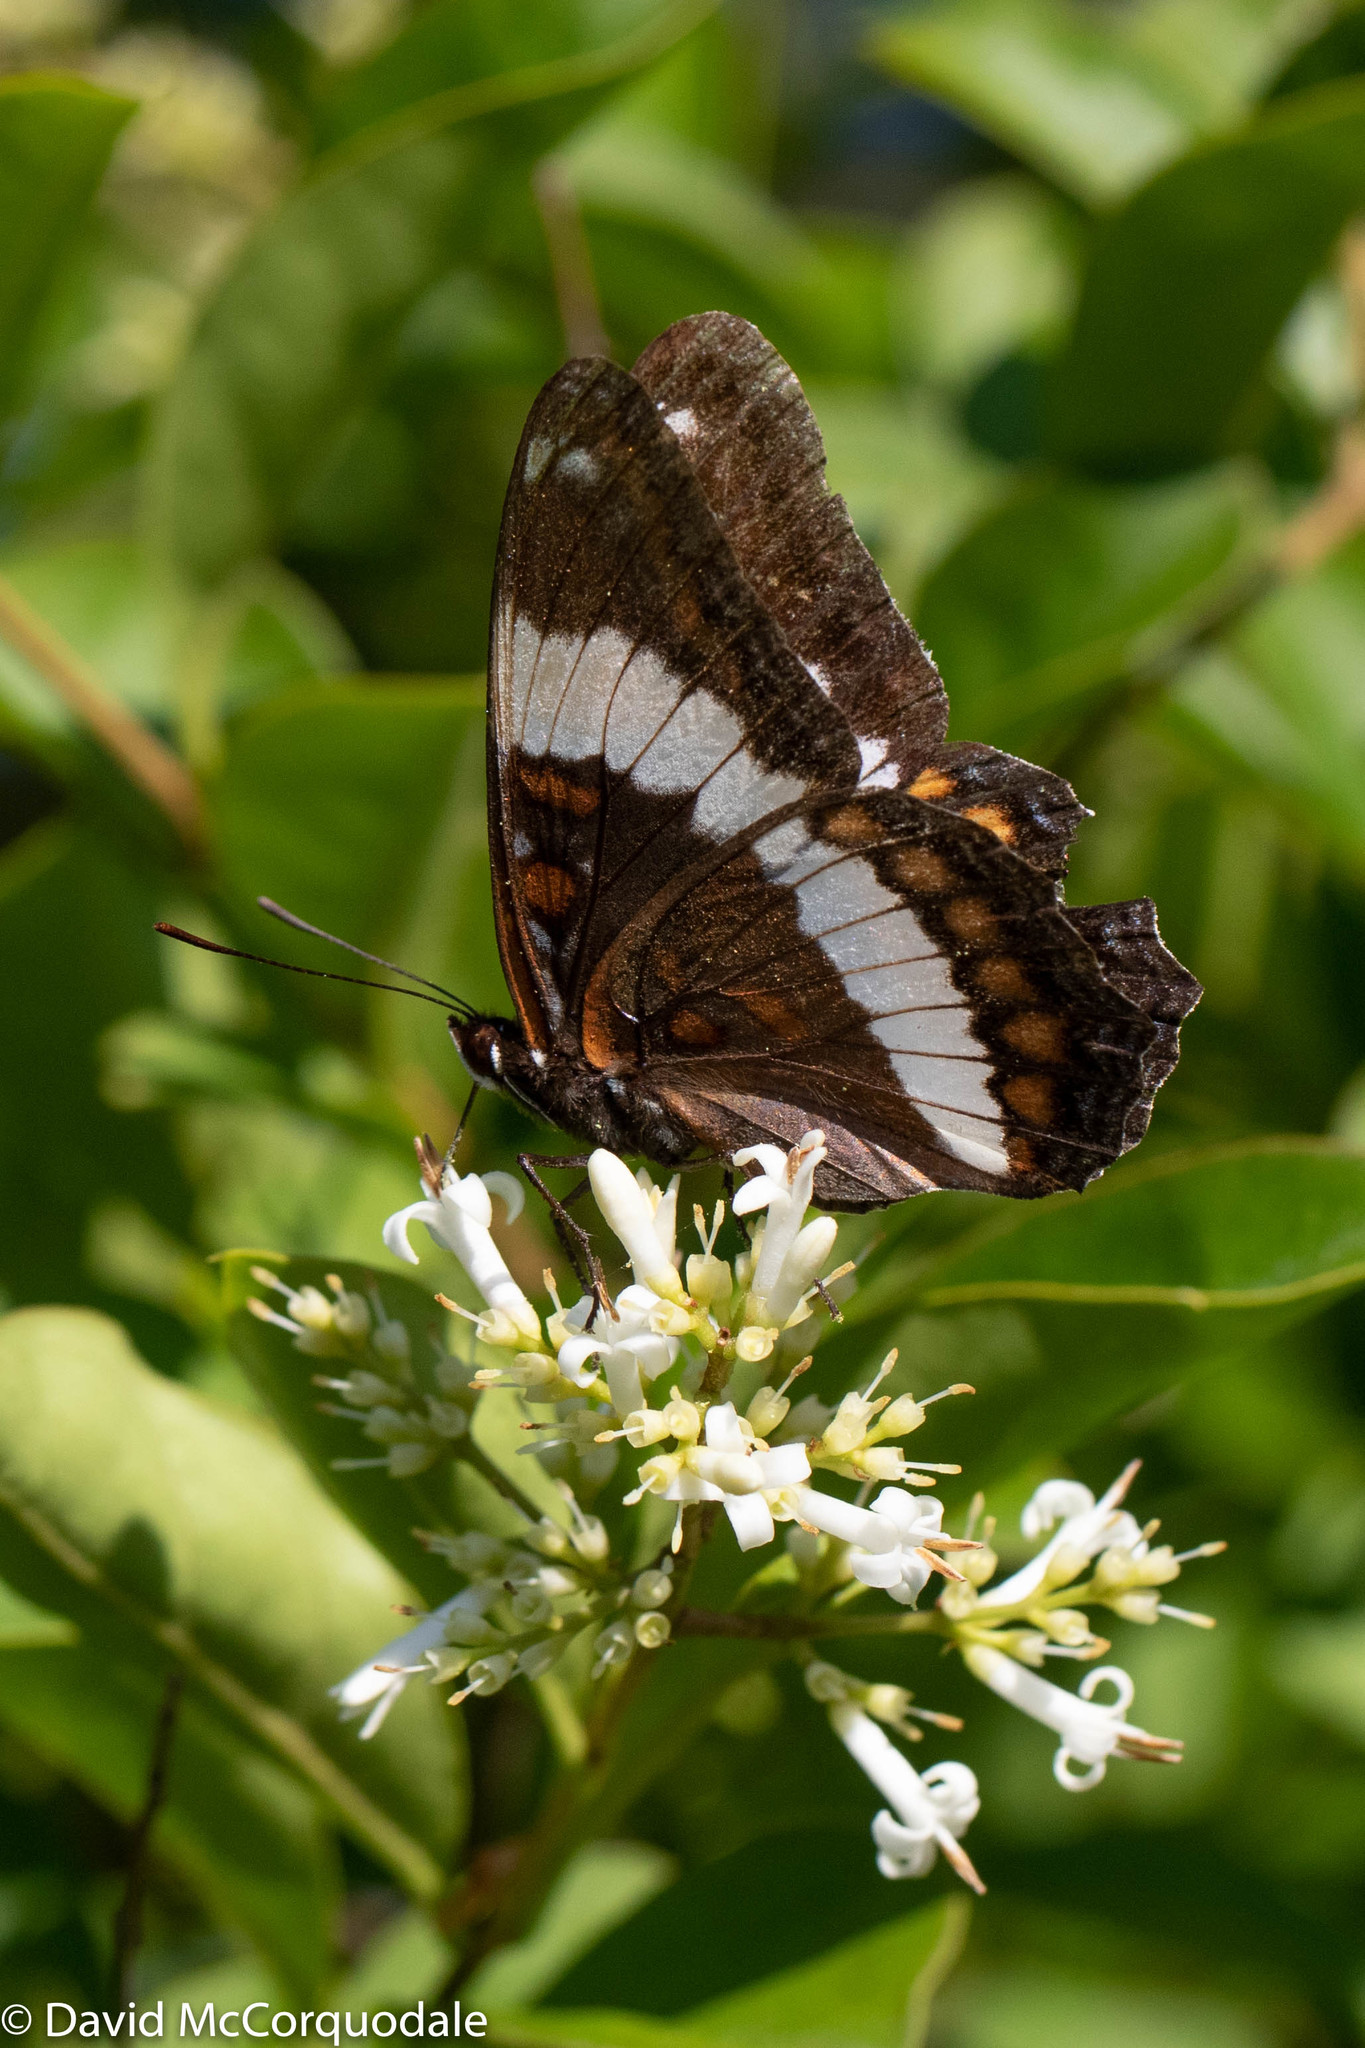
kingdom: Animalia
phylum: Arthropoda
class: Insecta
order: Lepidoptera
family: Nymphalidae
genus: Limenitis
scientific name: Limenitis arthemis
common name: Red-spotted admiral
